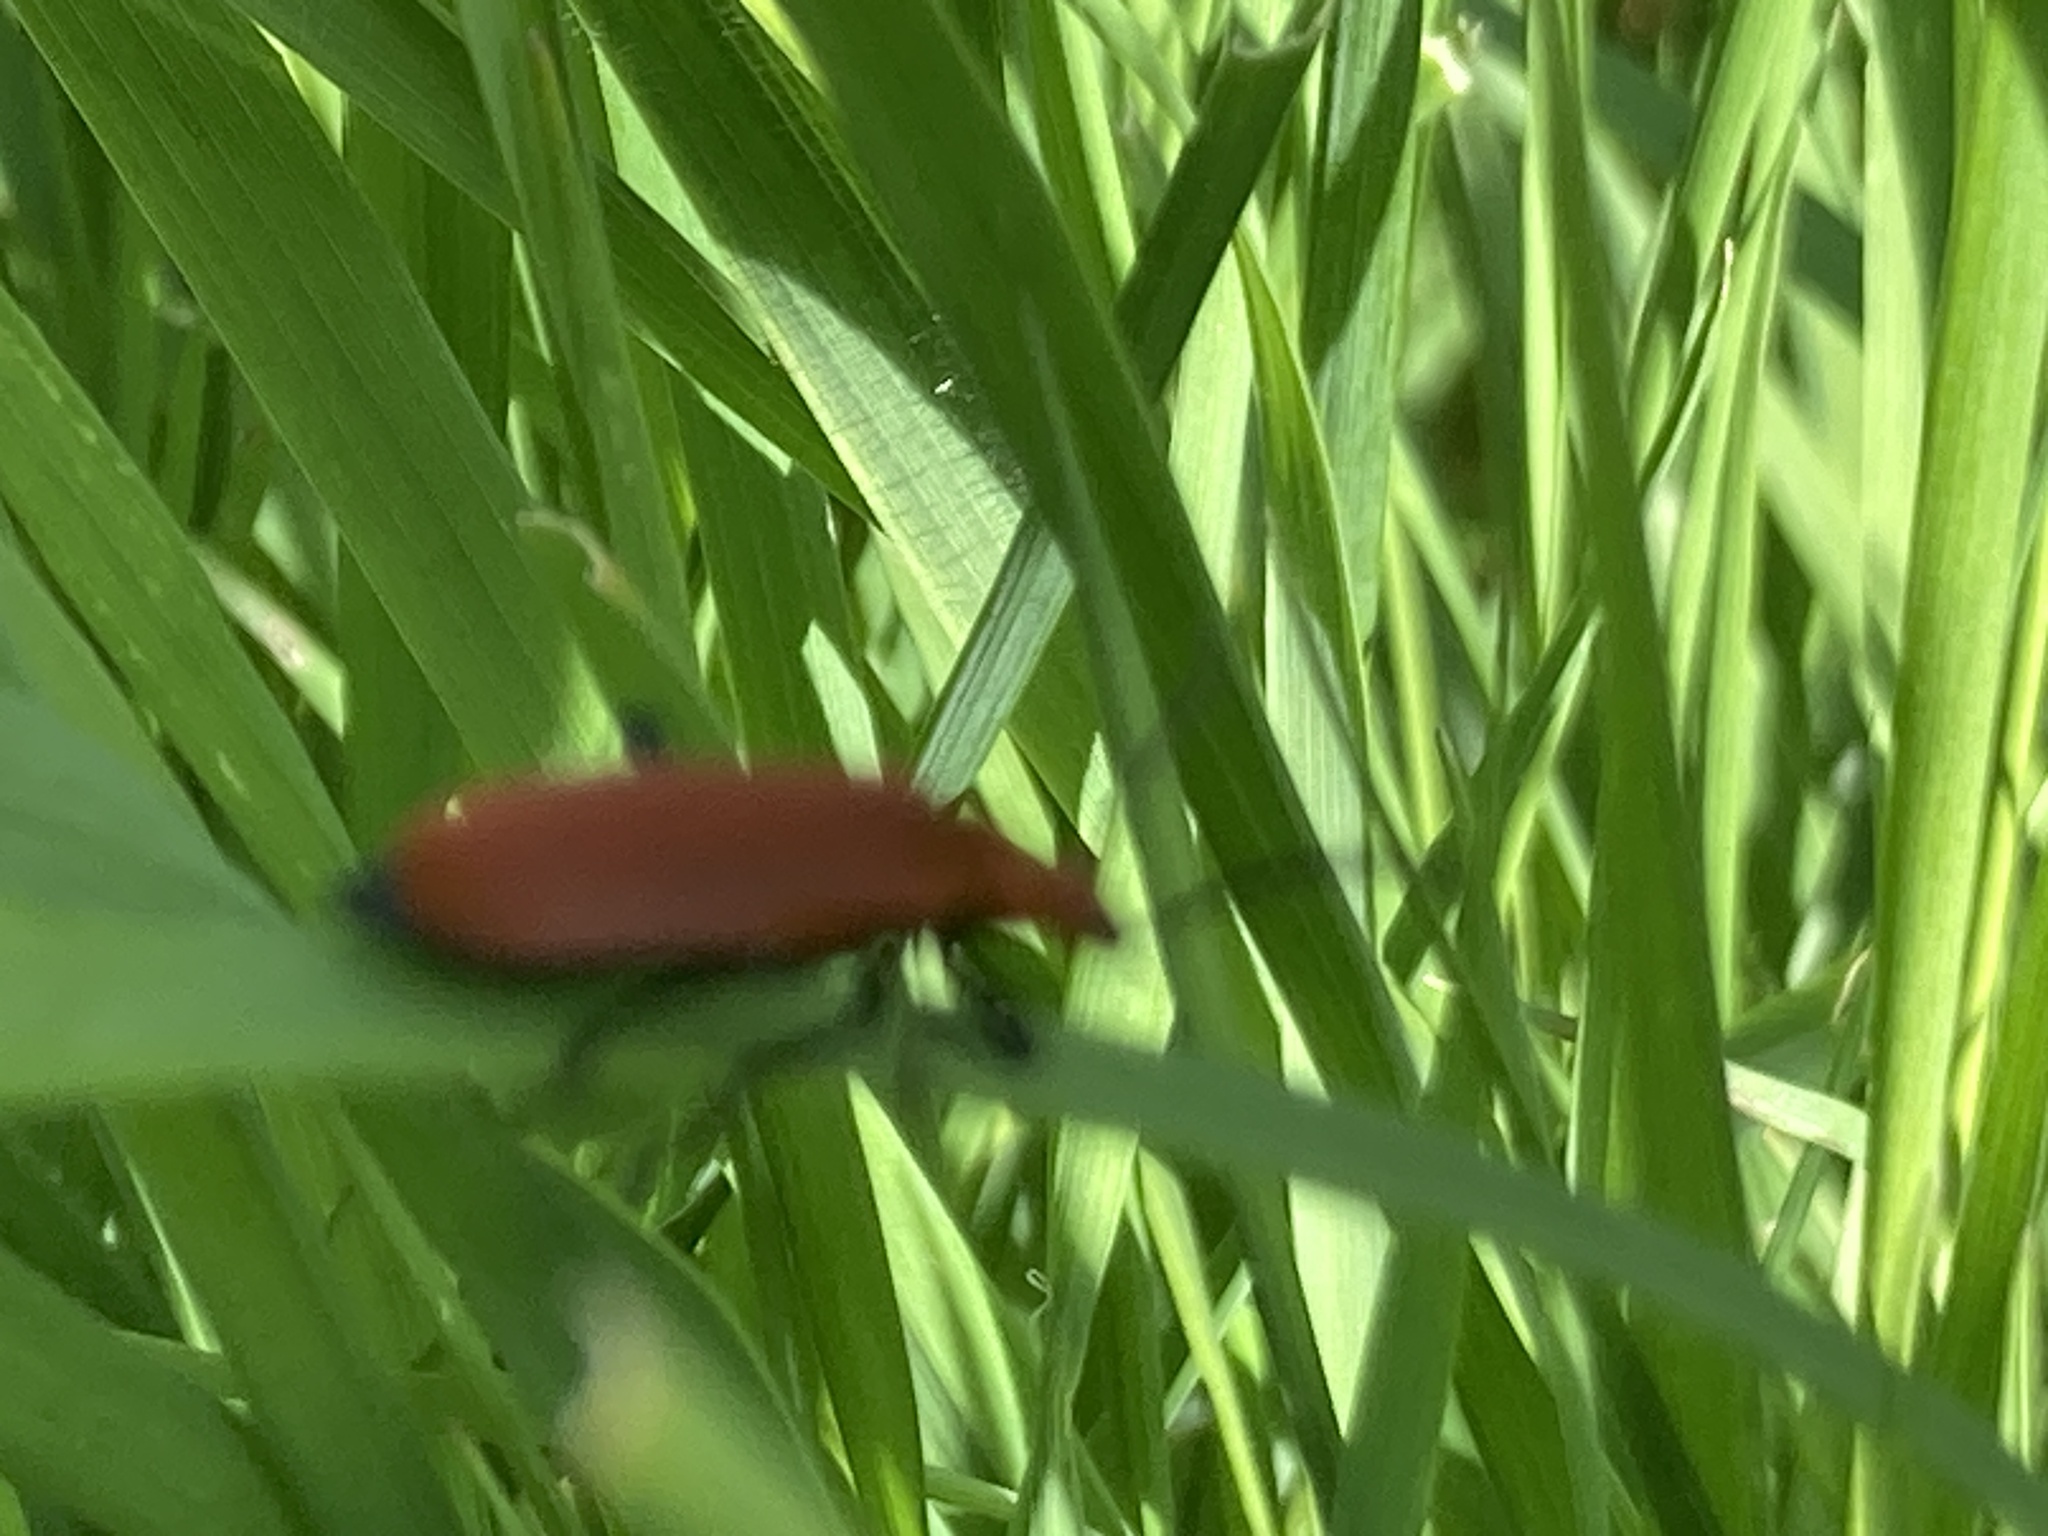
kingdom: Animalia
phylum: Arthropoda
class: Insecta
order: Coleoptera
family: Pyrochroidae
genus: Pyrochroa
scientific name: Pyrochroa serraticornis
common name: Red-headed cardinal beetle
